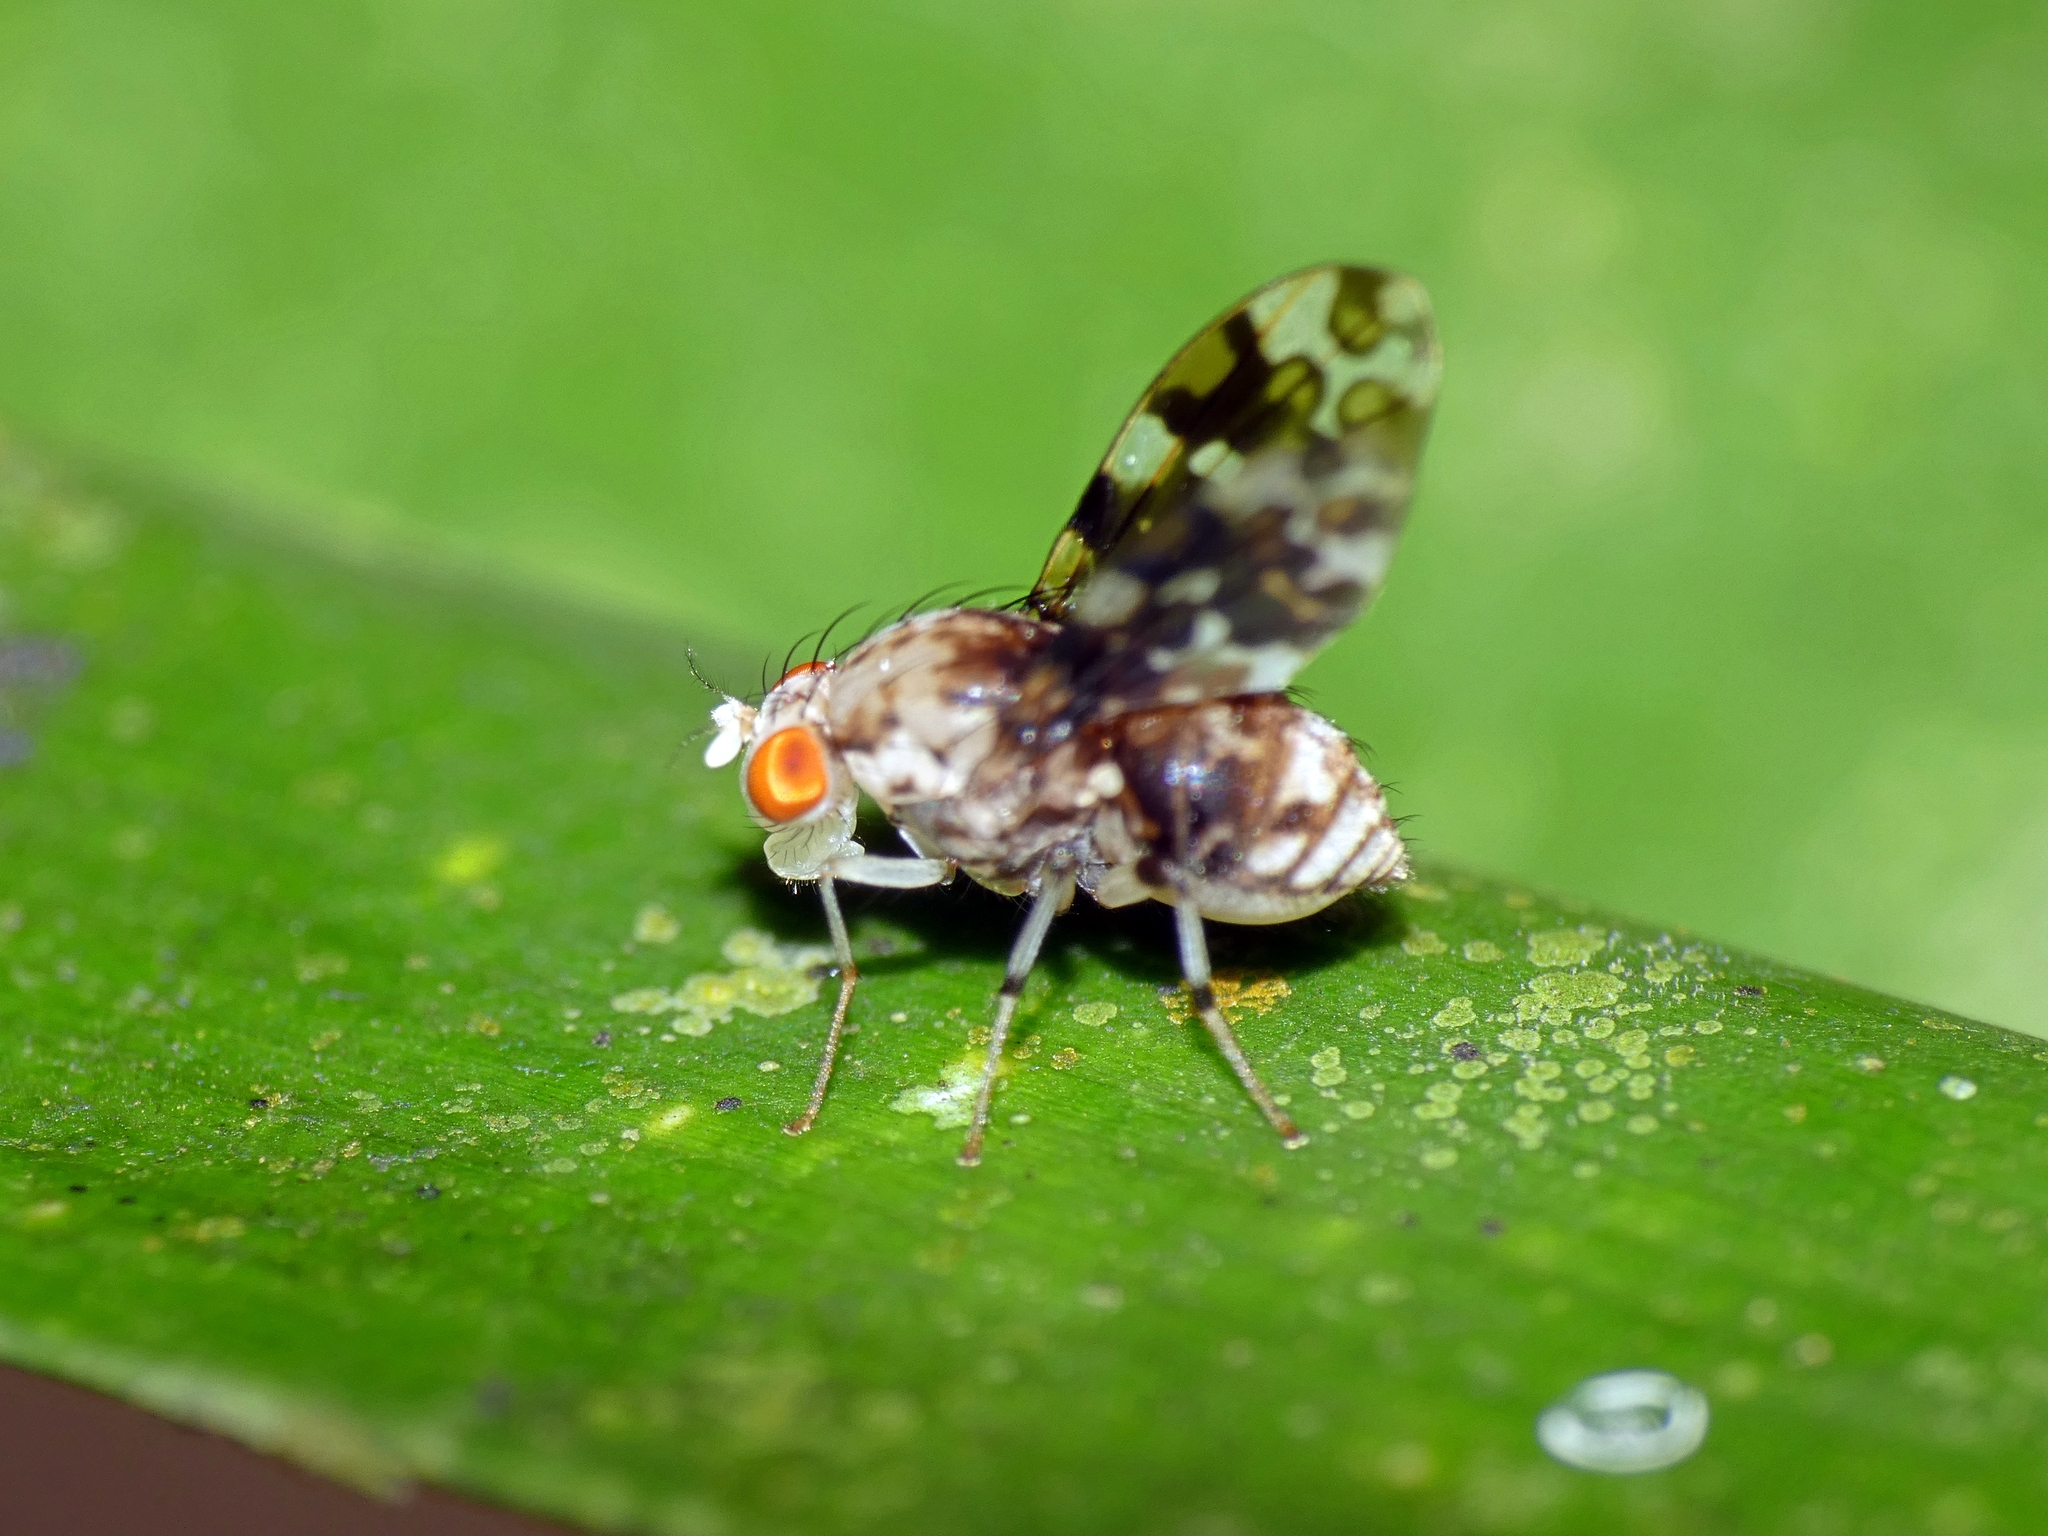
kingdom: Animalia
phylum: Arthropoda
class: Insecta
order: Diptera
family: Lauxaniidae
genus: Mettinia
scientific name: Mettinia suboceliifera
